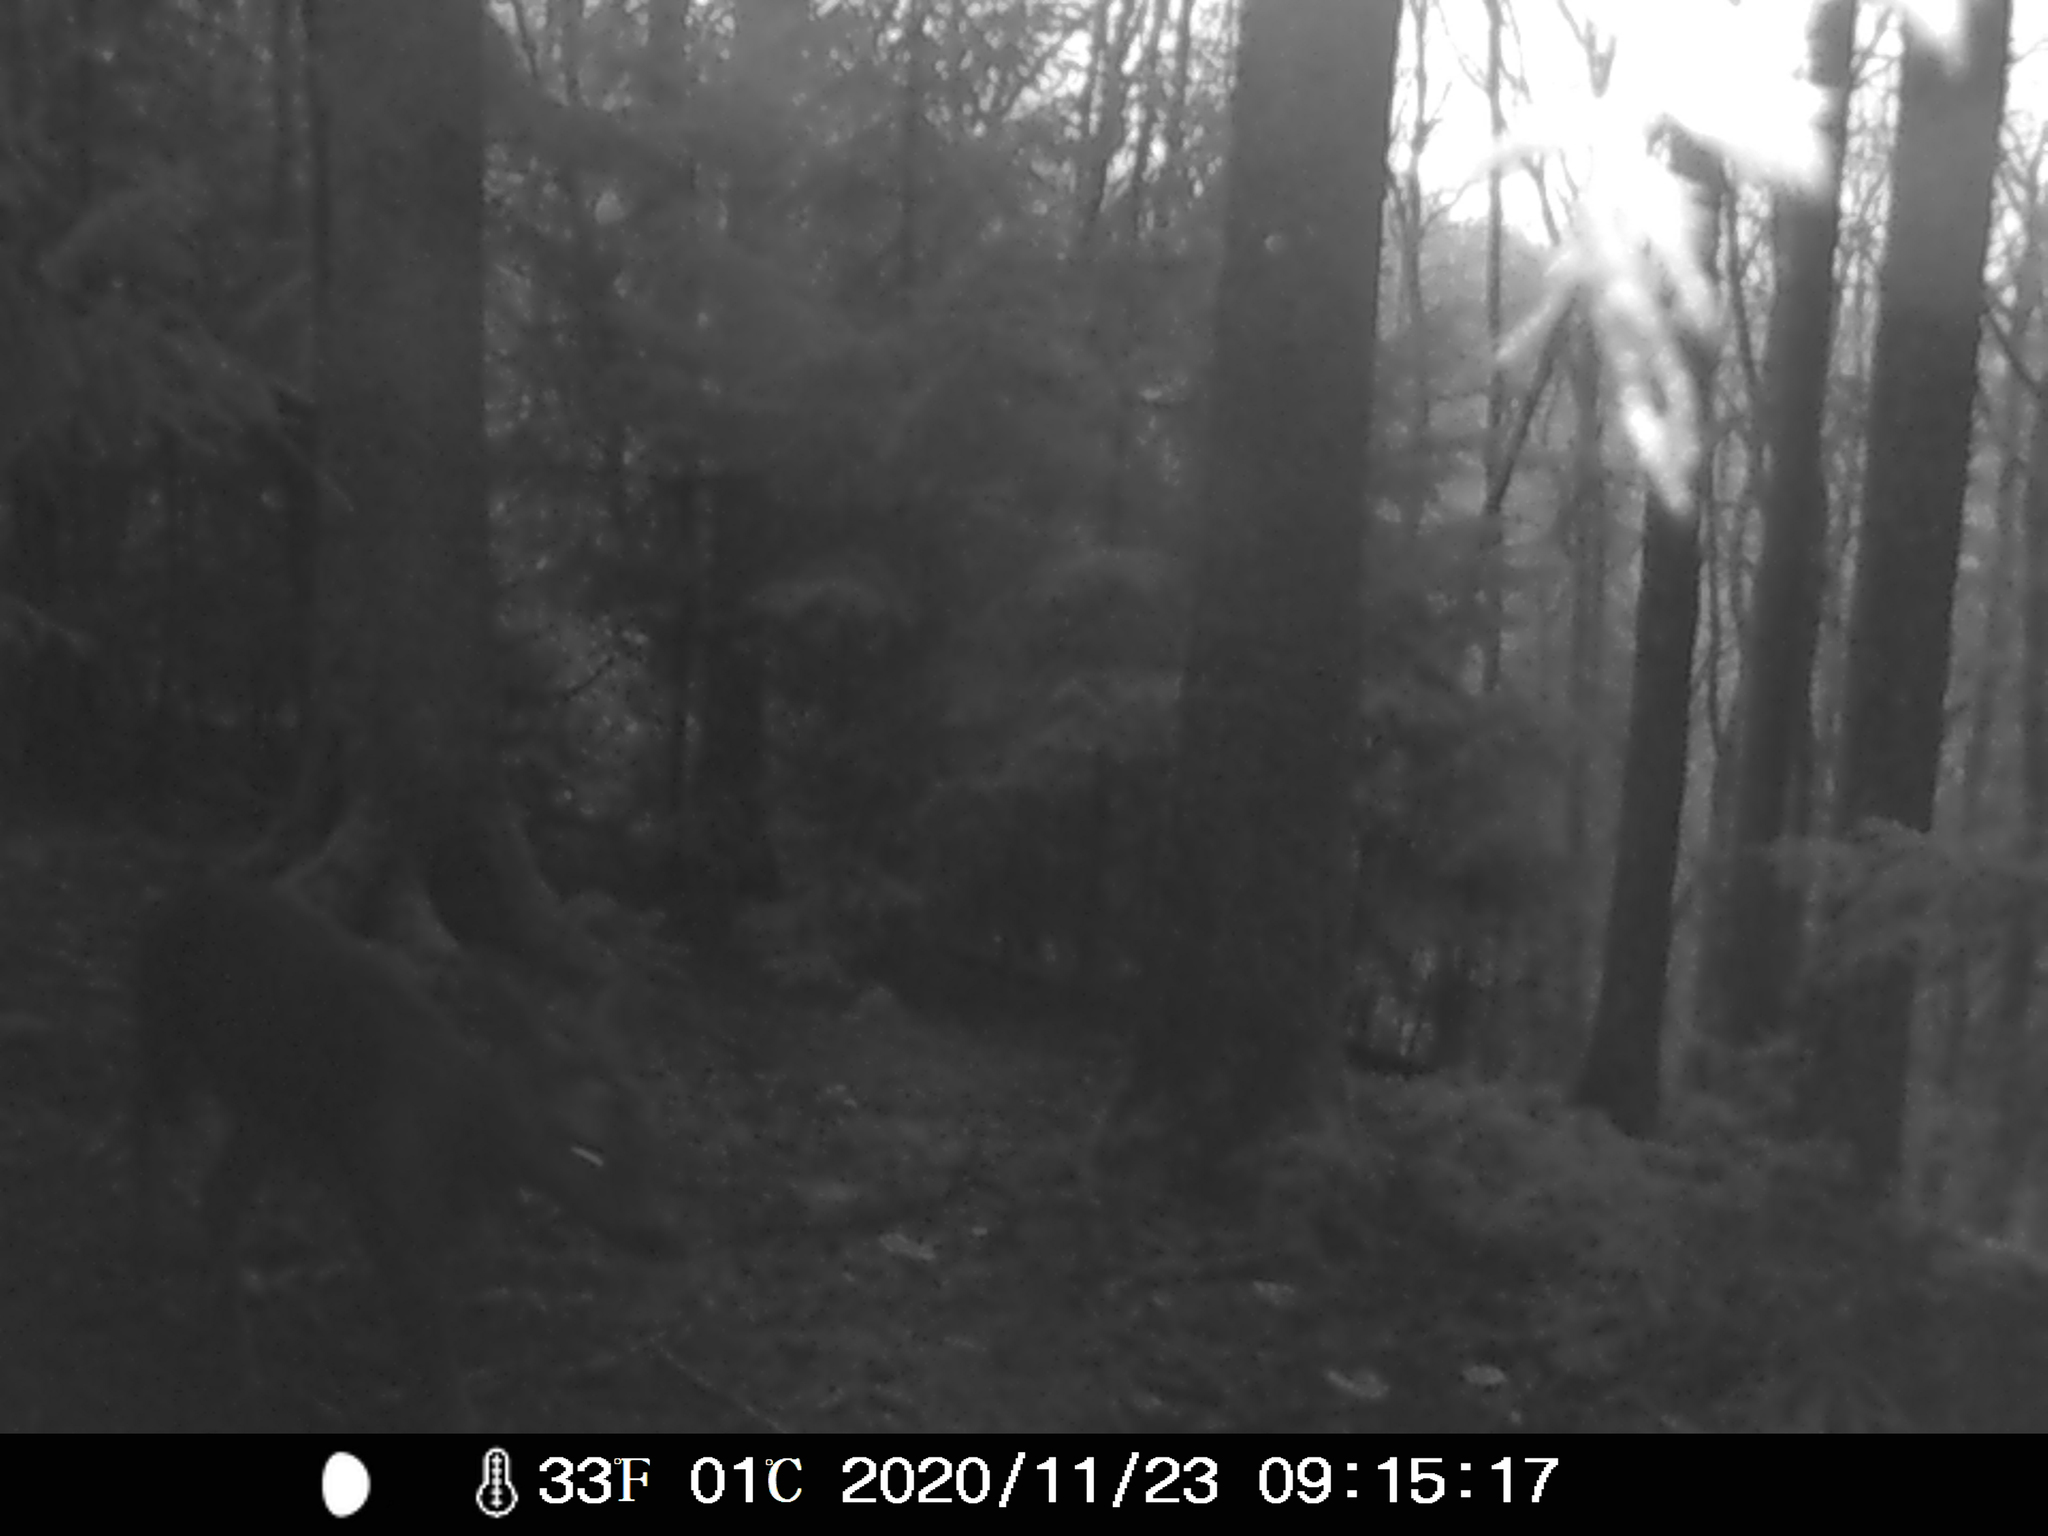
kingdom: Animalia
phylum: Chordata
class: Mammalia
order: Artiodactyla
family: Cervidae
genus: Capreolus
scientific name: Capreolus capreolus
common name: Western roe deer
